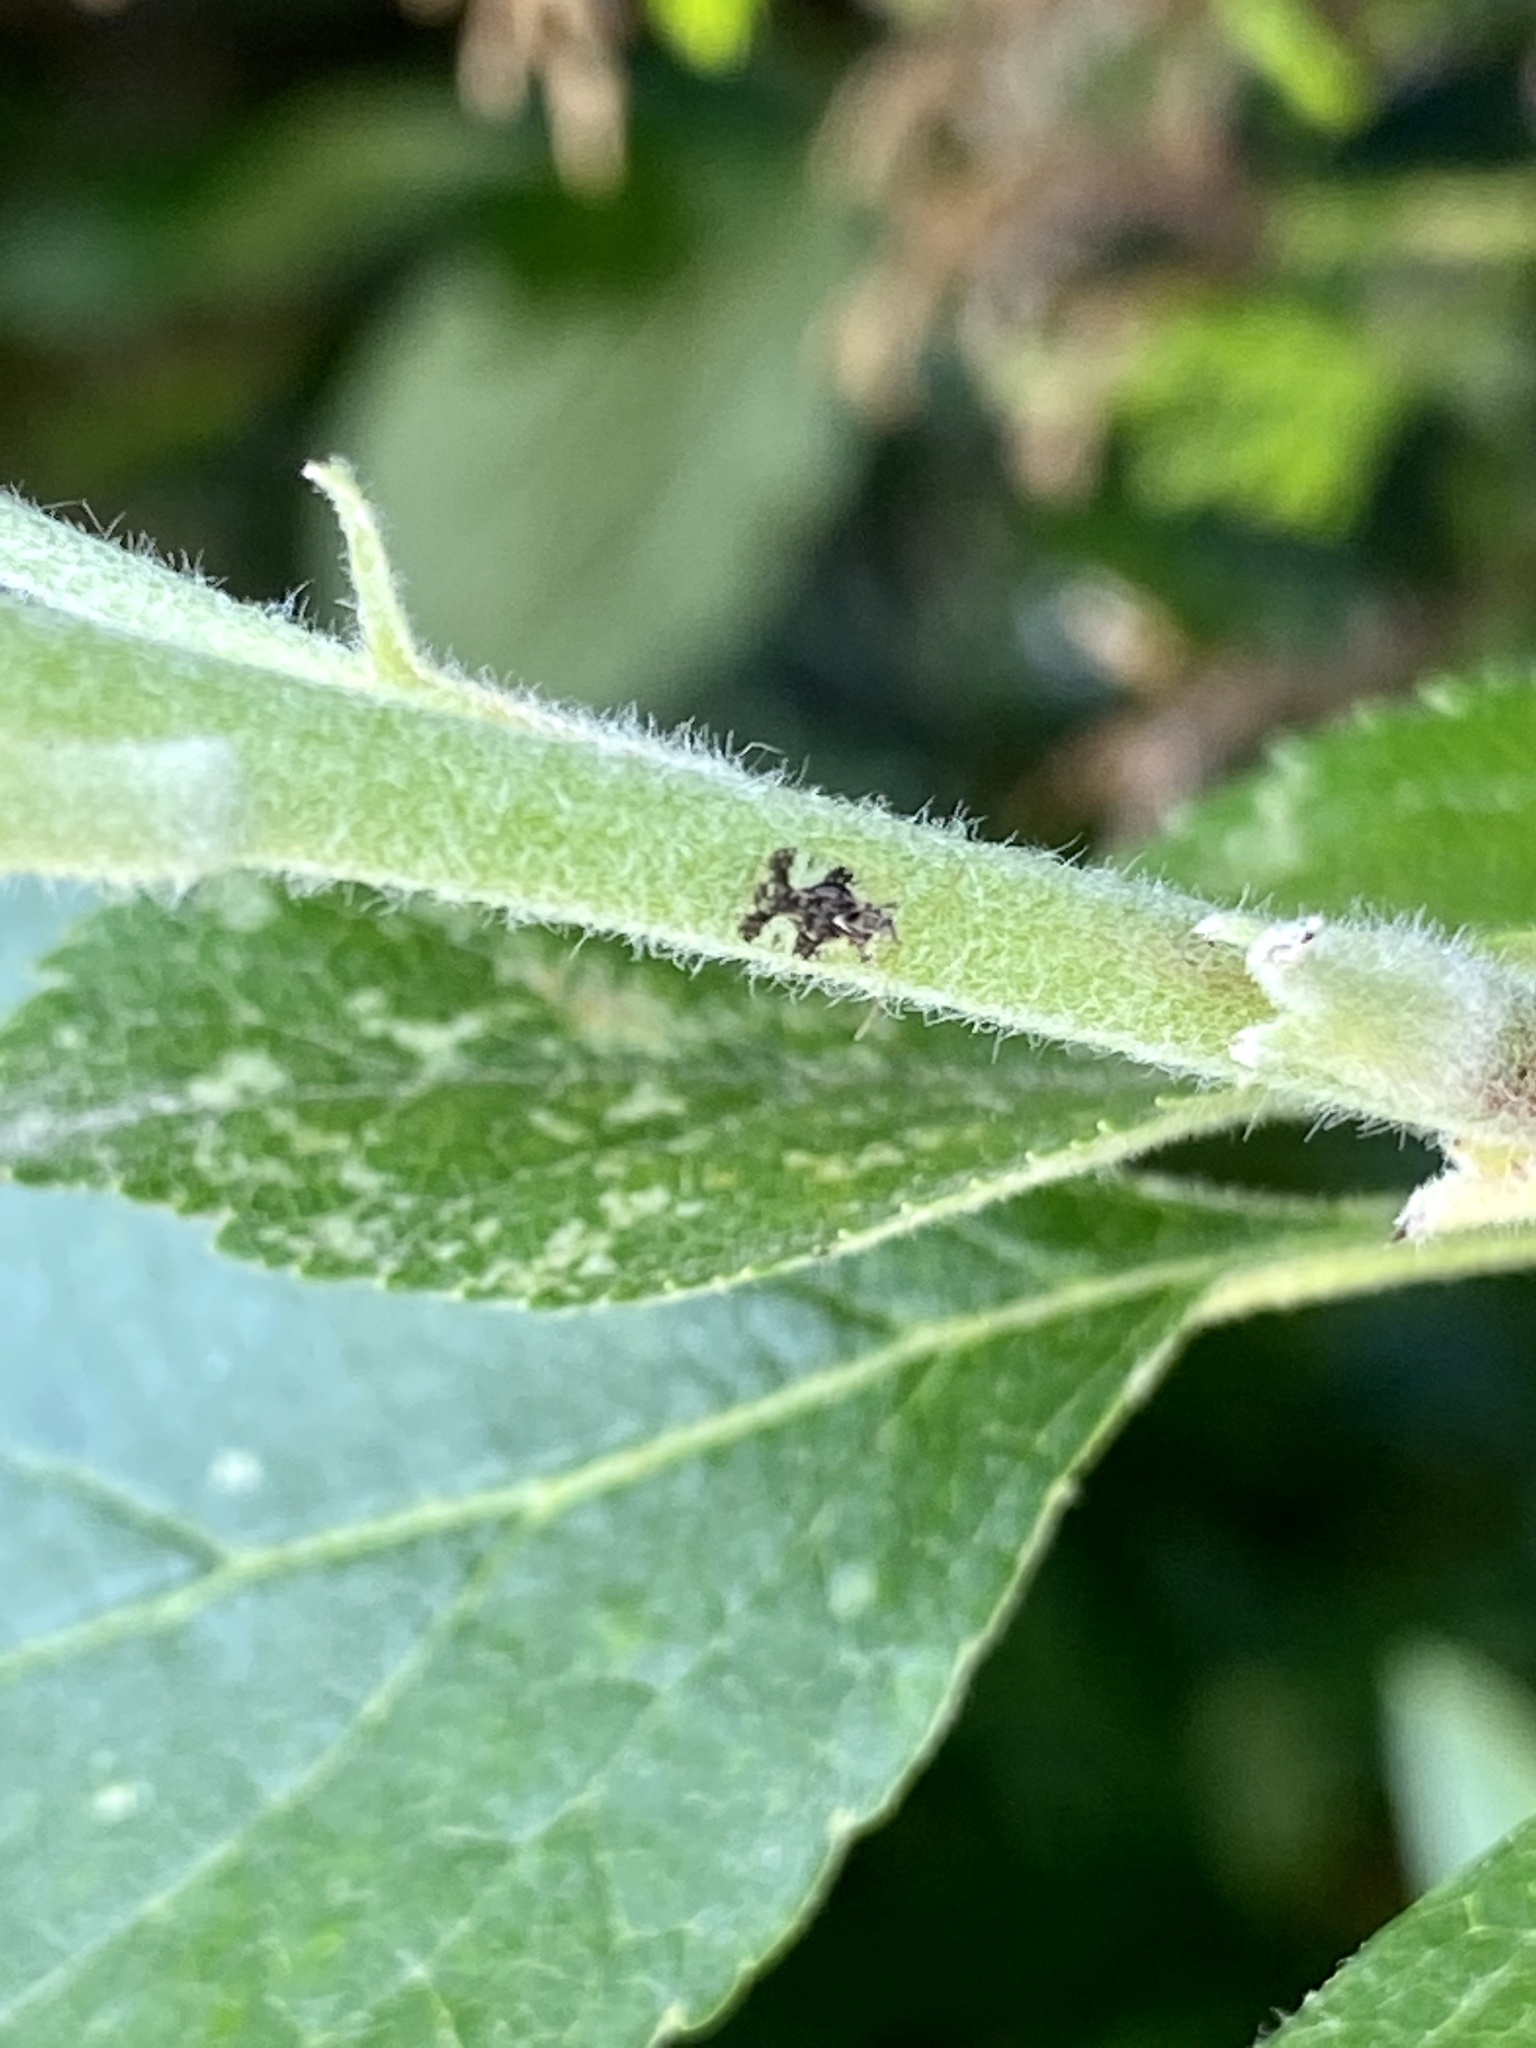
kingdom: Animalia
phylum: Arthropoda
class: Insecta
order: Hemiptera
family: Tingidae
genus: Stephanitis
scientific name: Stephanitis nashi
